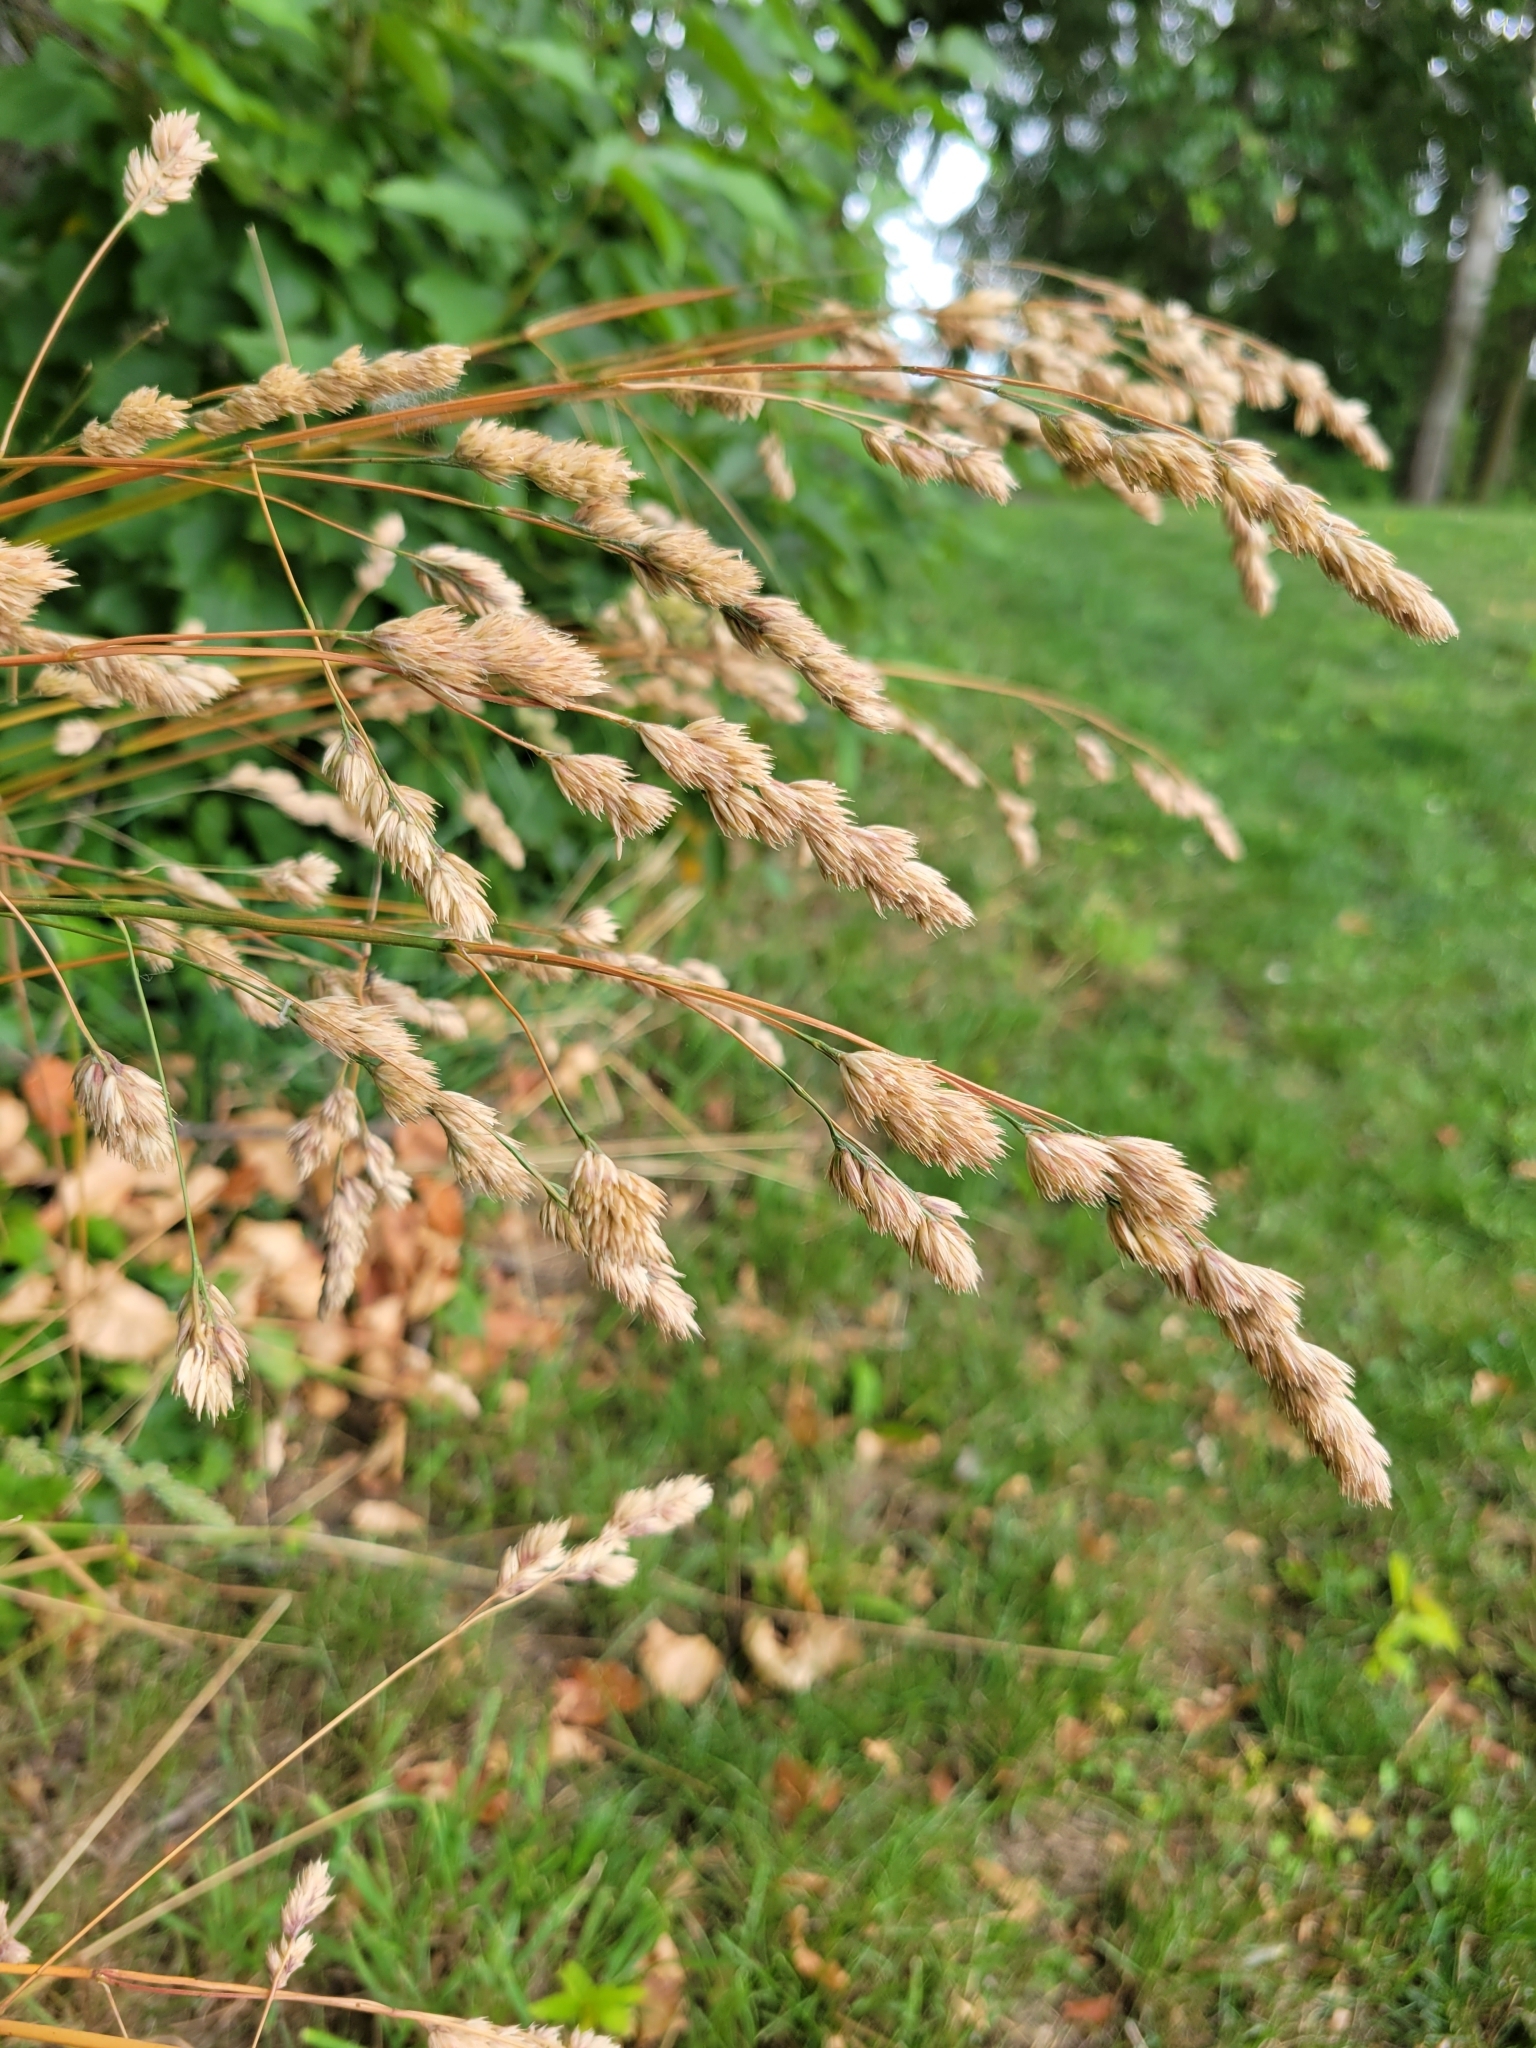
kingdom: Plantae
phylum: Tracheophyta
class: Liliopsida
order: Poales
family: Poaceae
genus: Dactylis
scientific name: Dactylis glomerata
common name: Orchardgrass
